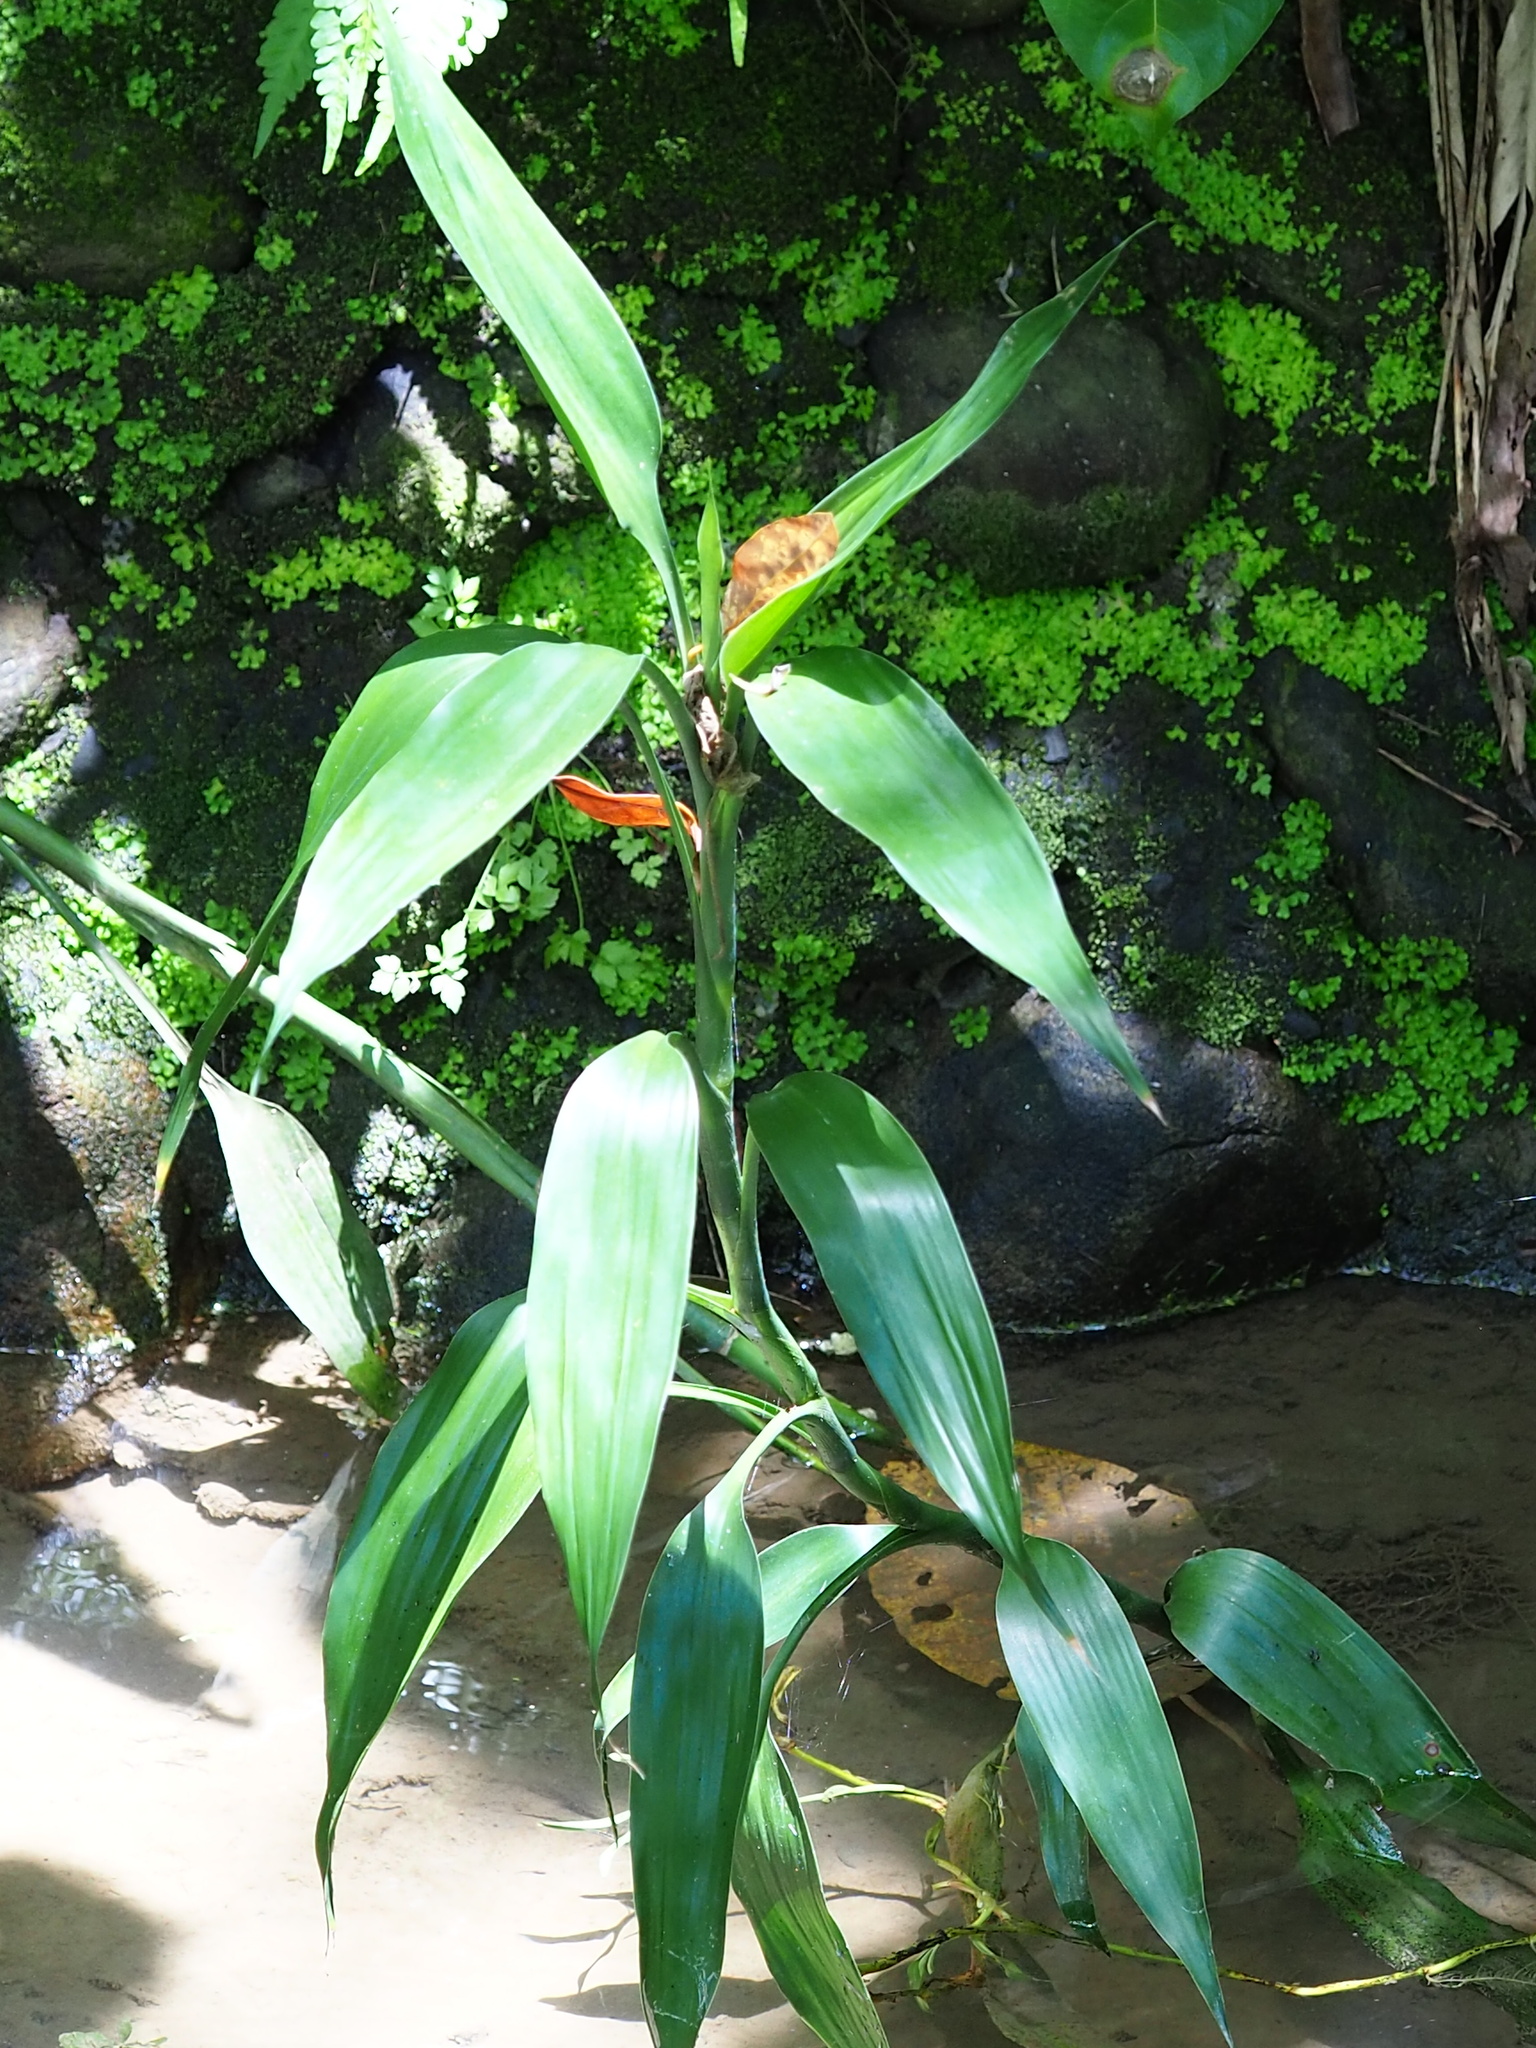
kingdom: Plantae
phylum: Tracheophyta
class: Liliopsida
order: Asparagales
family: Asparagaceae
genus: Dracaena
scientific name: Dracaena sanderiana
